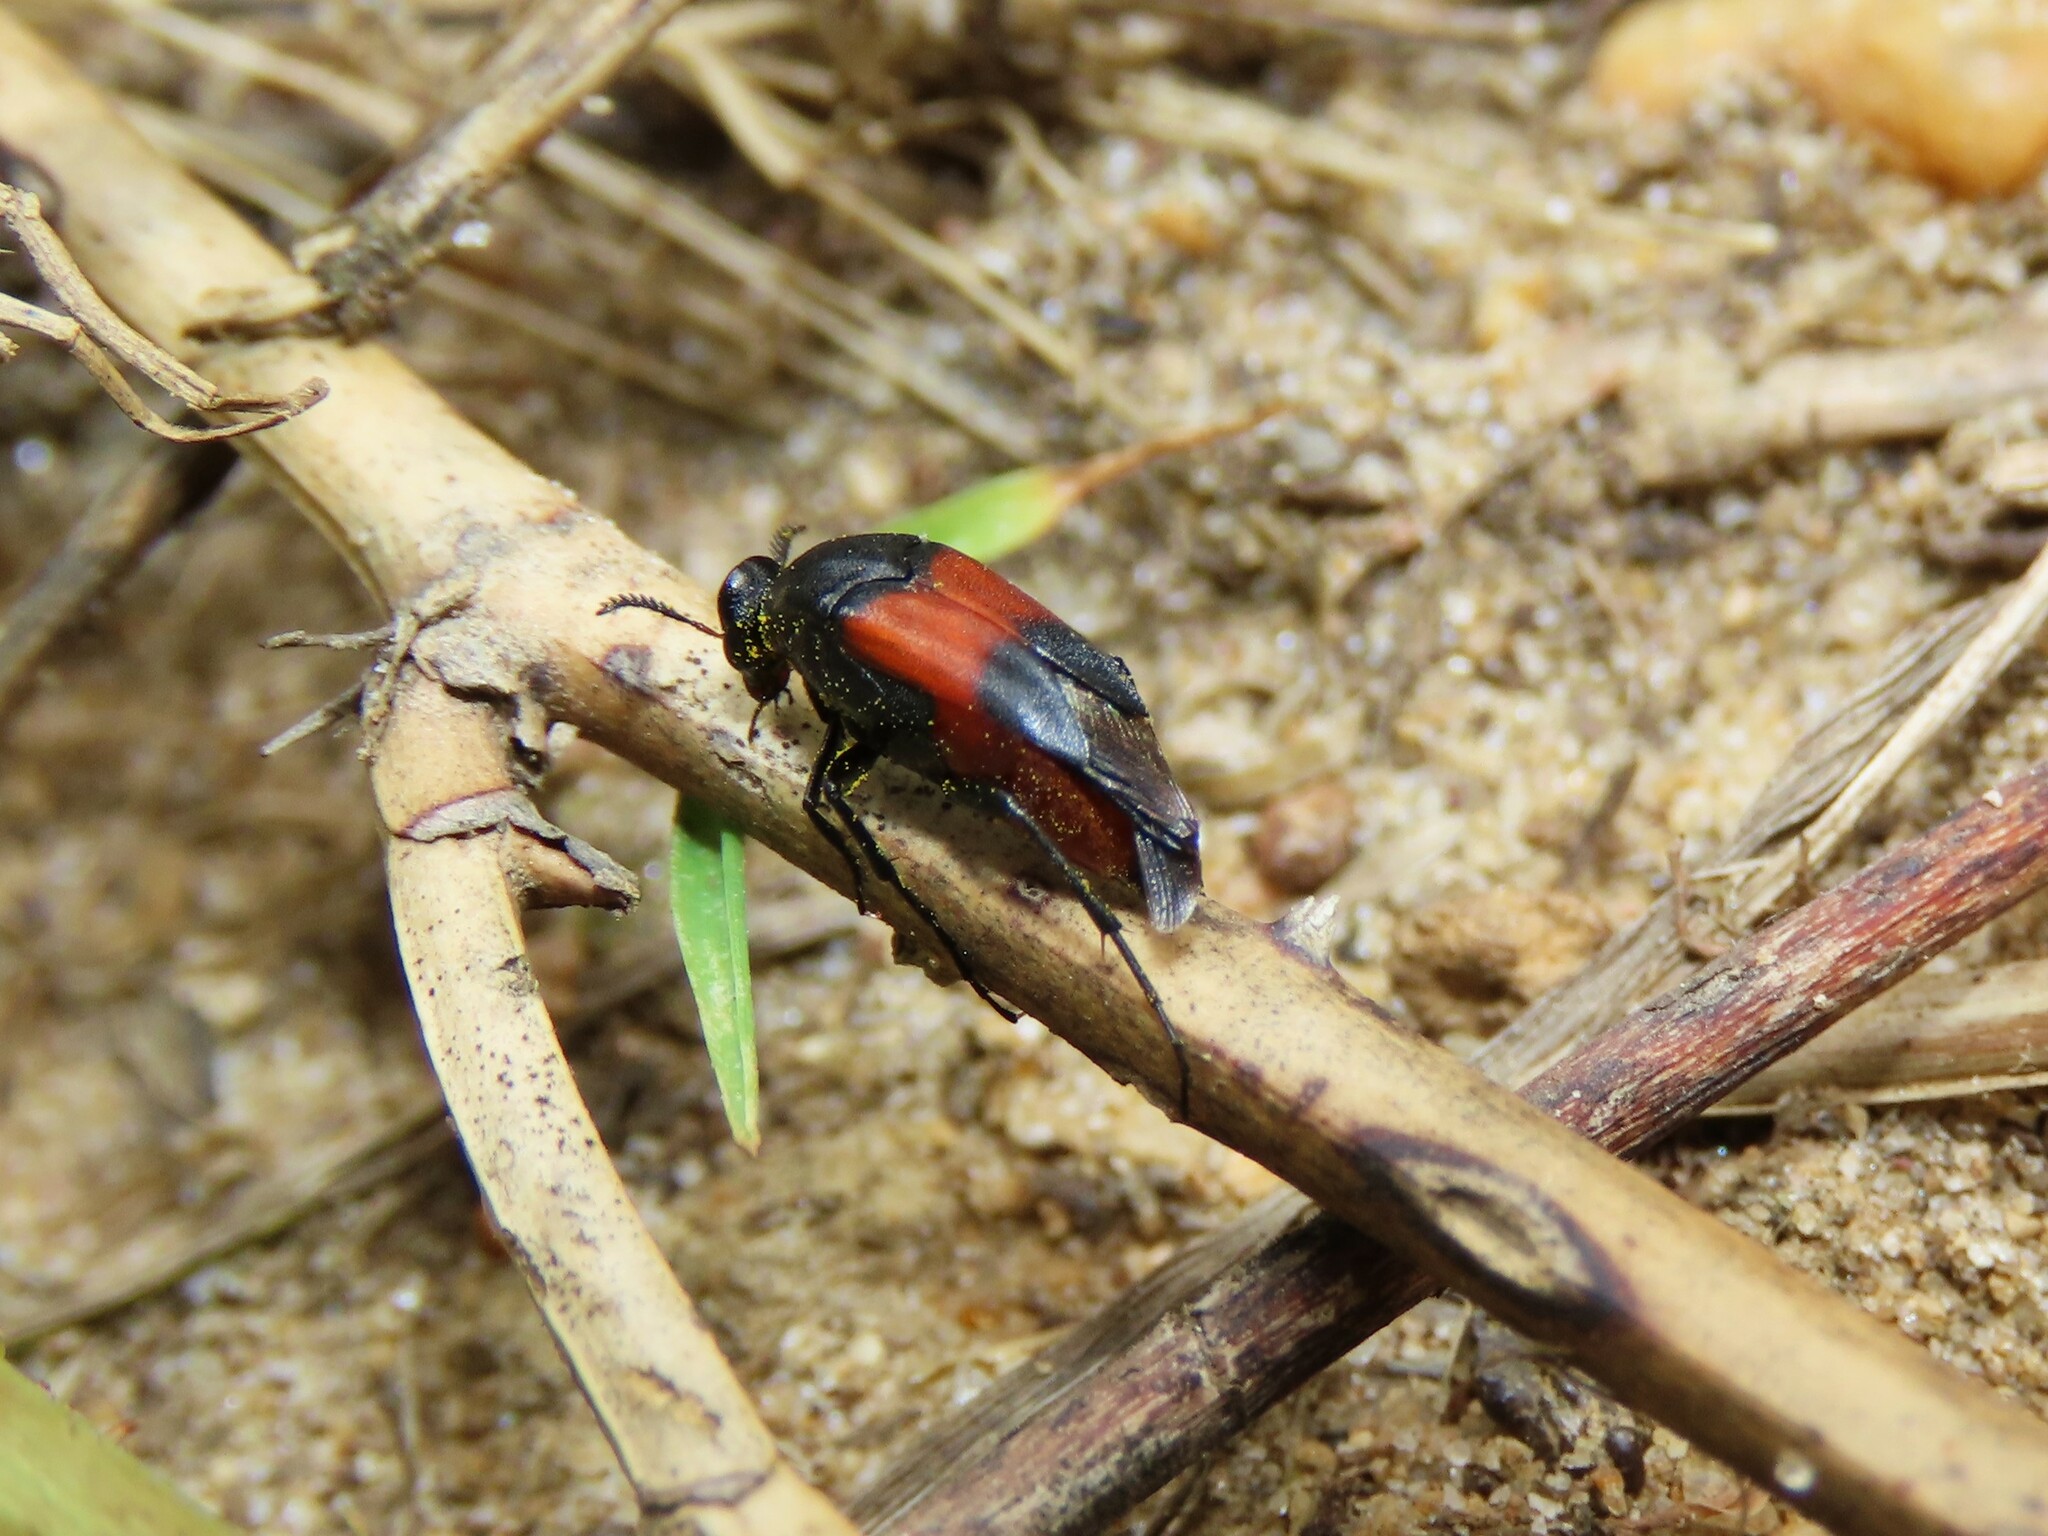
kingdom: Animalia
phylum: Arthropoda
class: Insecta
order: Coleoptera
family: Ripiphoridae
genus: Macrosiagon
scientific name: Macrosiagon cruentum
